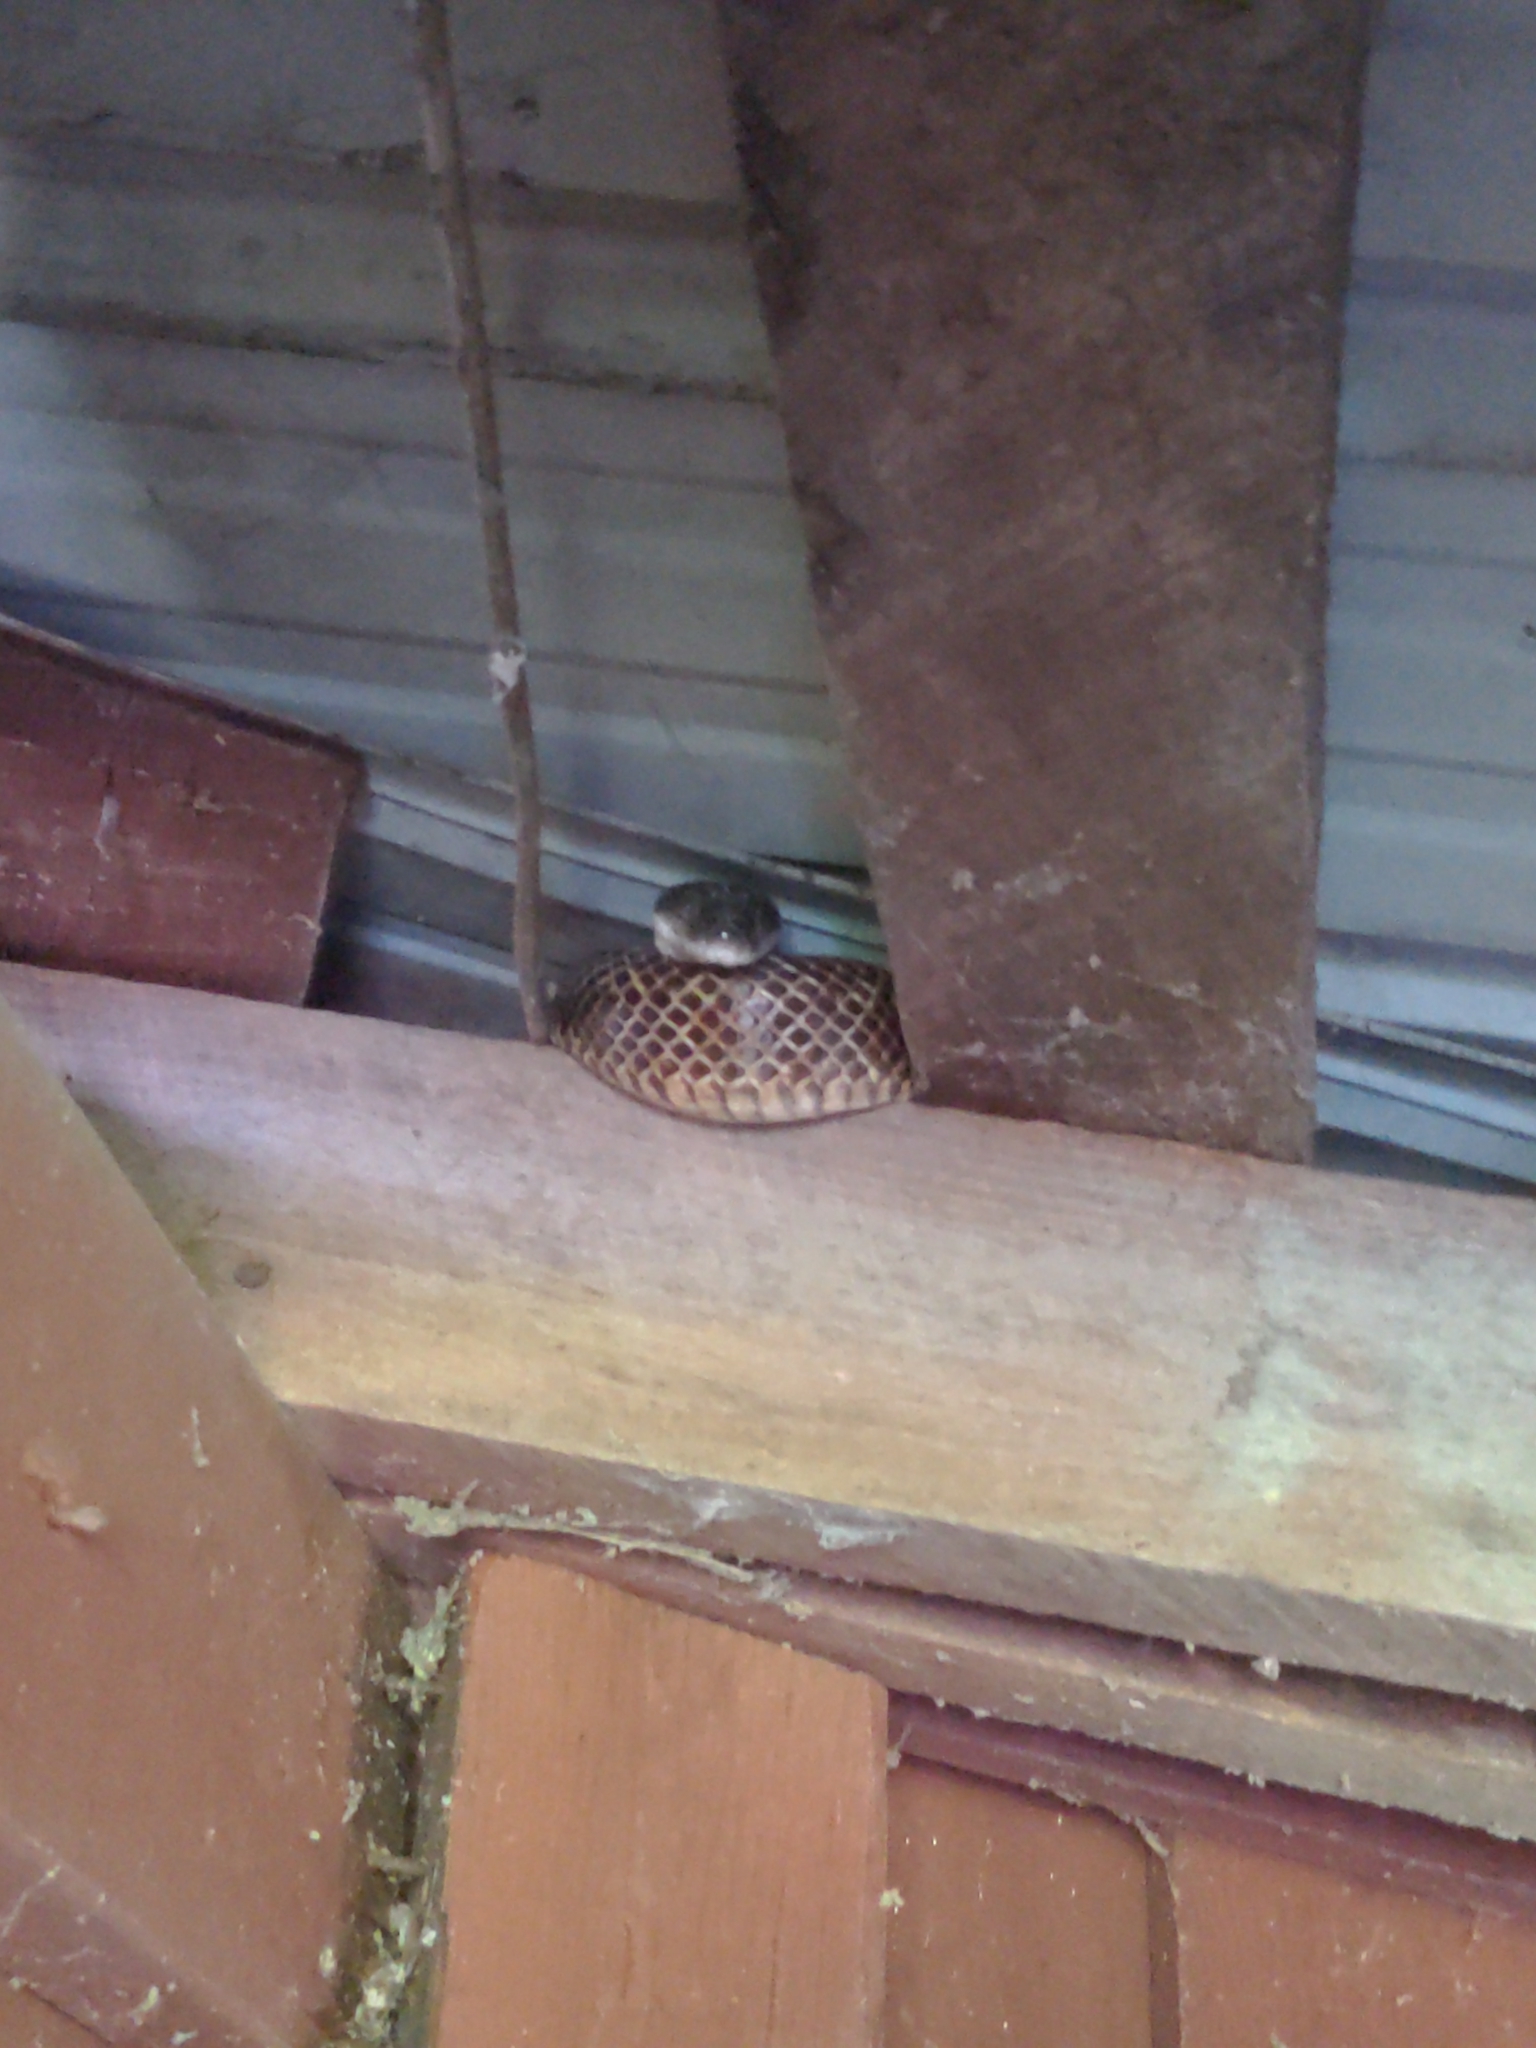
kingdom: Animalia
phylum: Chordata
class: Squamata
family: Colubridae
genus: Pantherophis
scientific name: Pantherophis spiloides
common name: Gray rat snake
